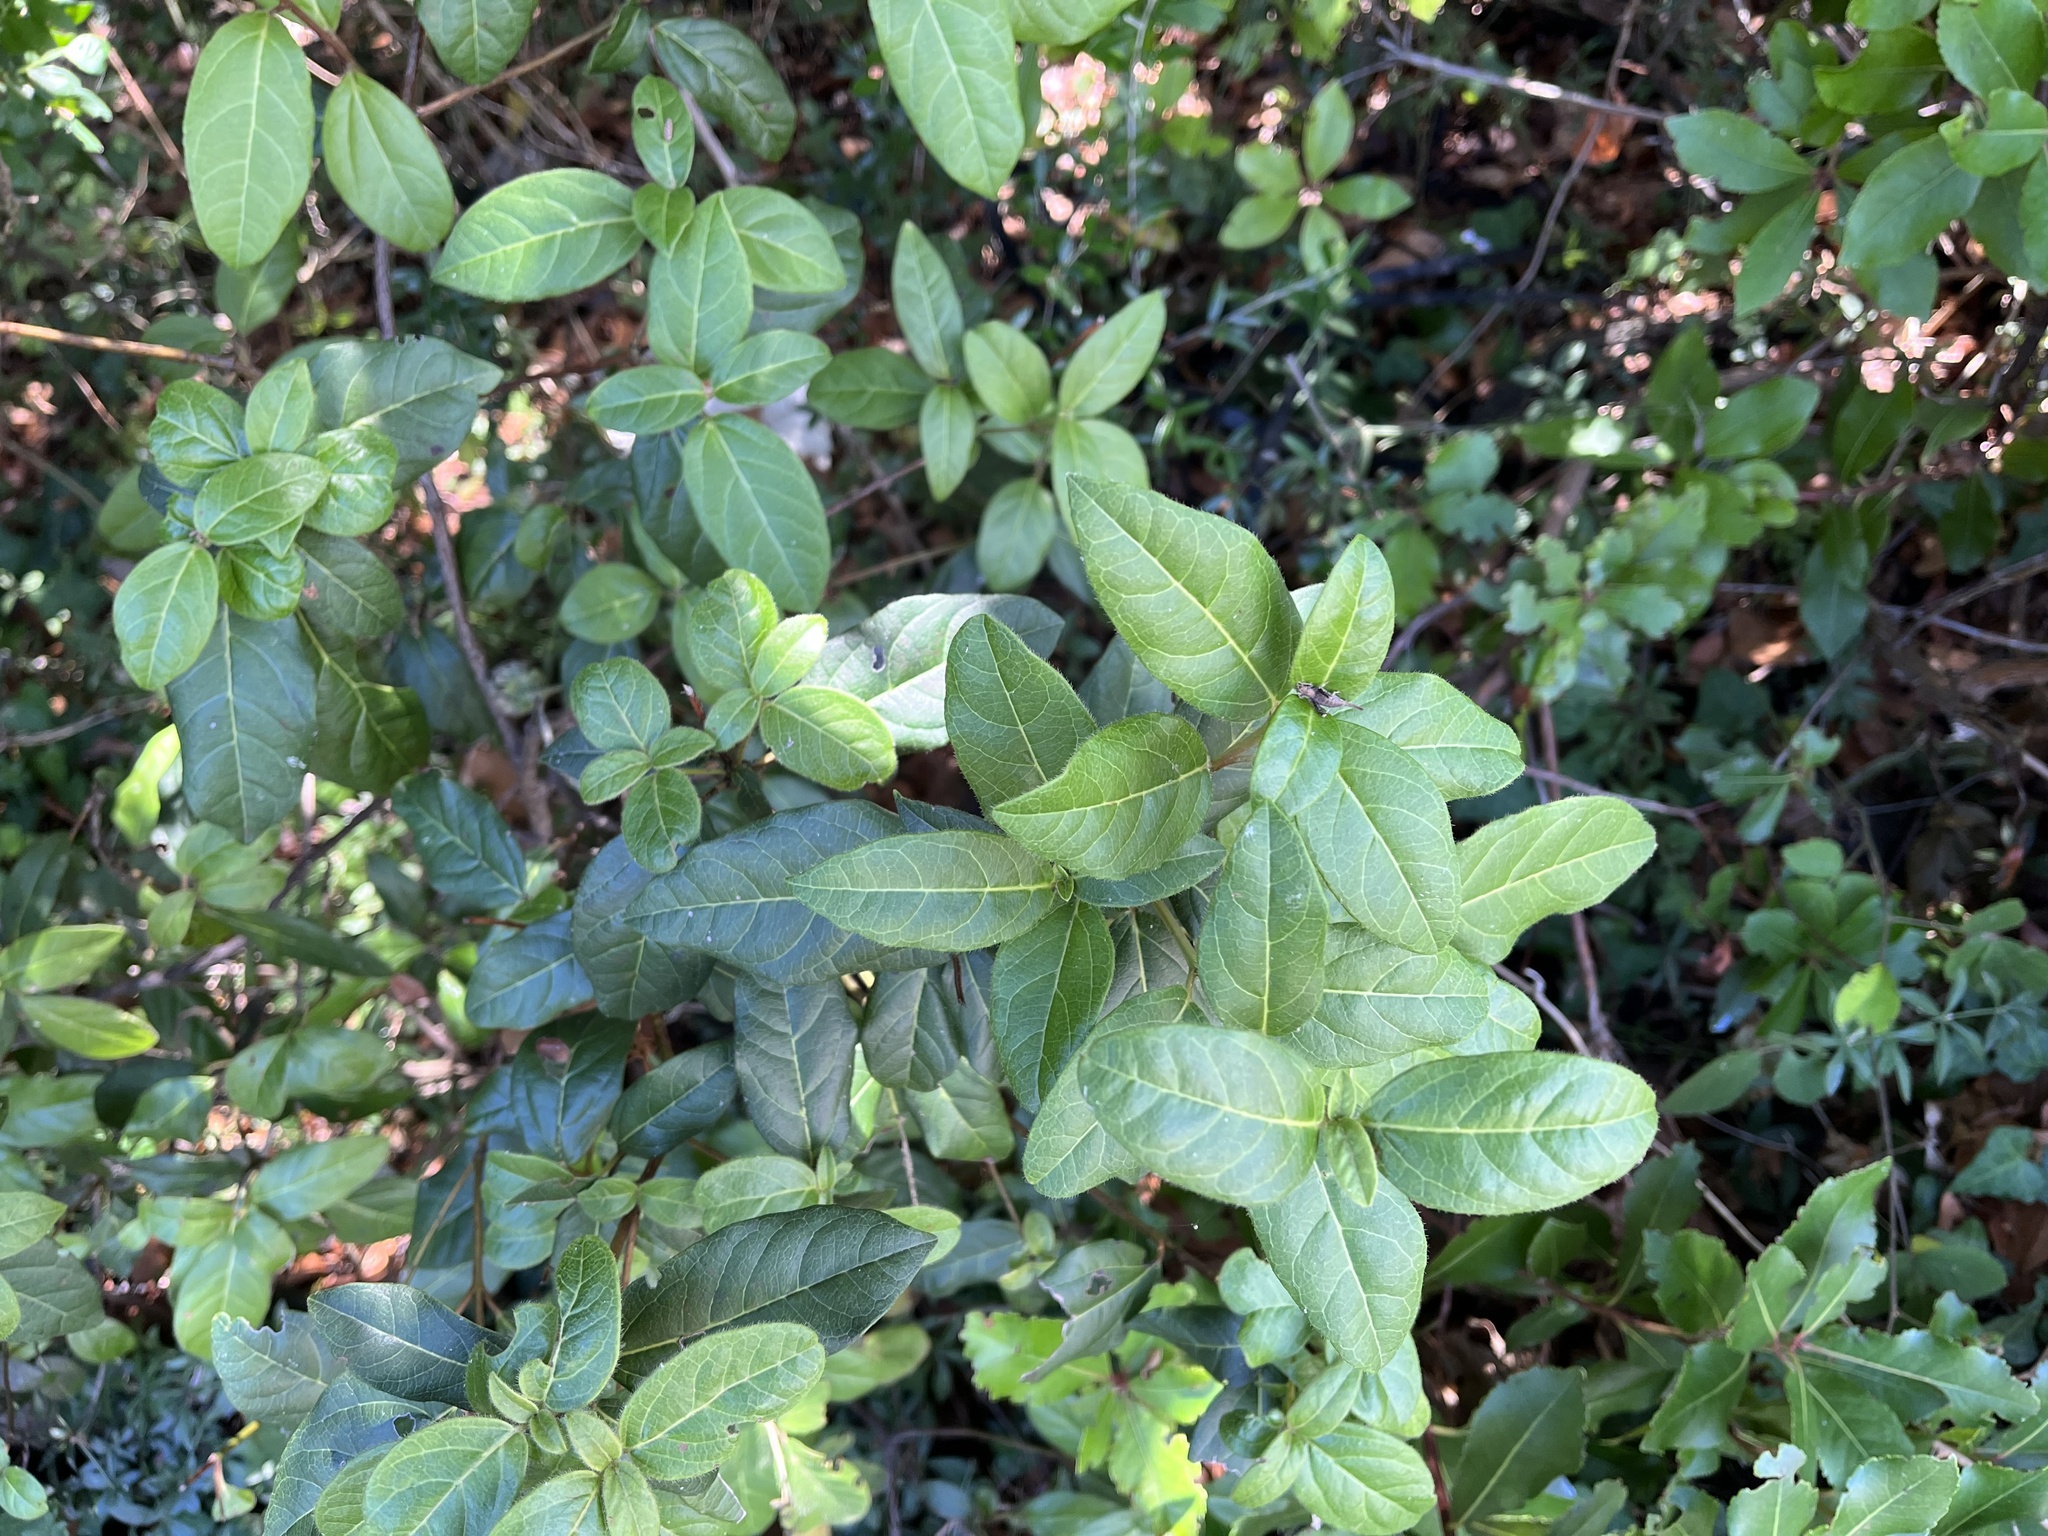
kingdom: Plantae
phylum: Tracheophyta
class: Magnoliopsida
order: Dipsacales
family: Viburnaceae
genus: Viburnum
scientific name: Viburnum tinus
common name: Laurustinus
